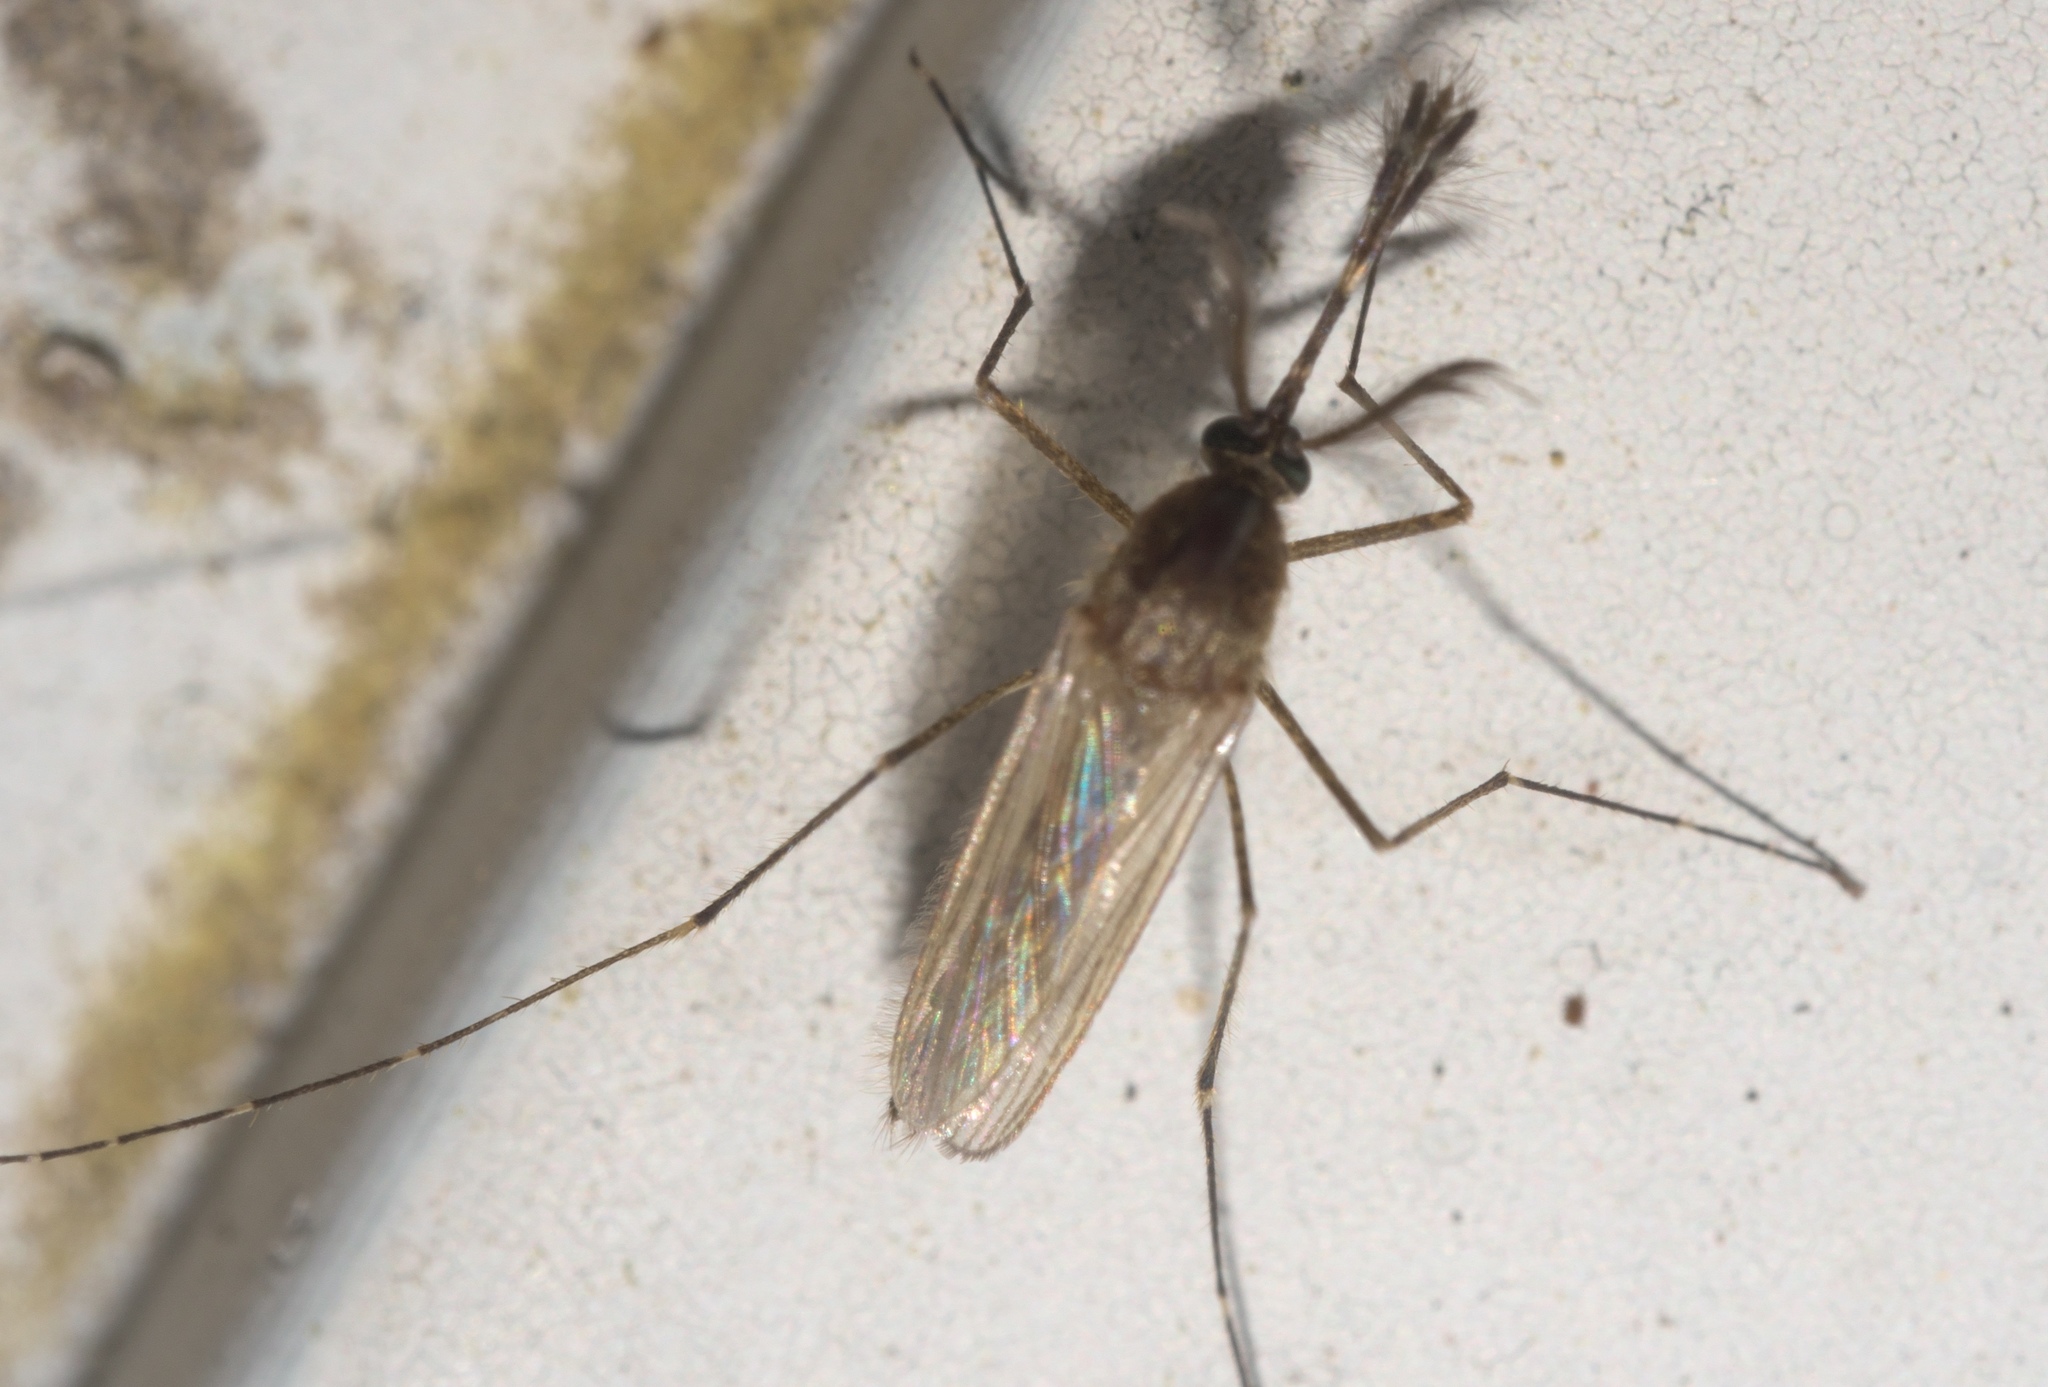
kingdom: Animalia
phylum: Arthropoda
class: Insecta
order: Diptera
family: Culicidae
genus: Aedes
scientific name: Aedes vexans
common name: Inland floodwater mosquito
